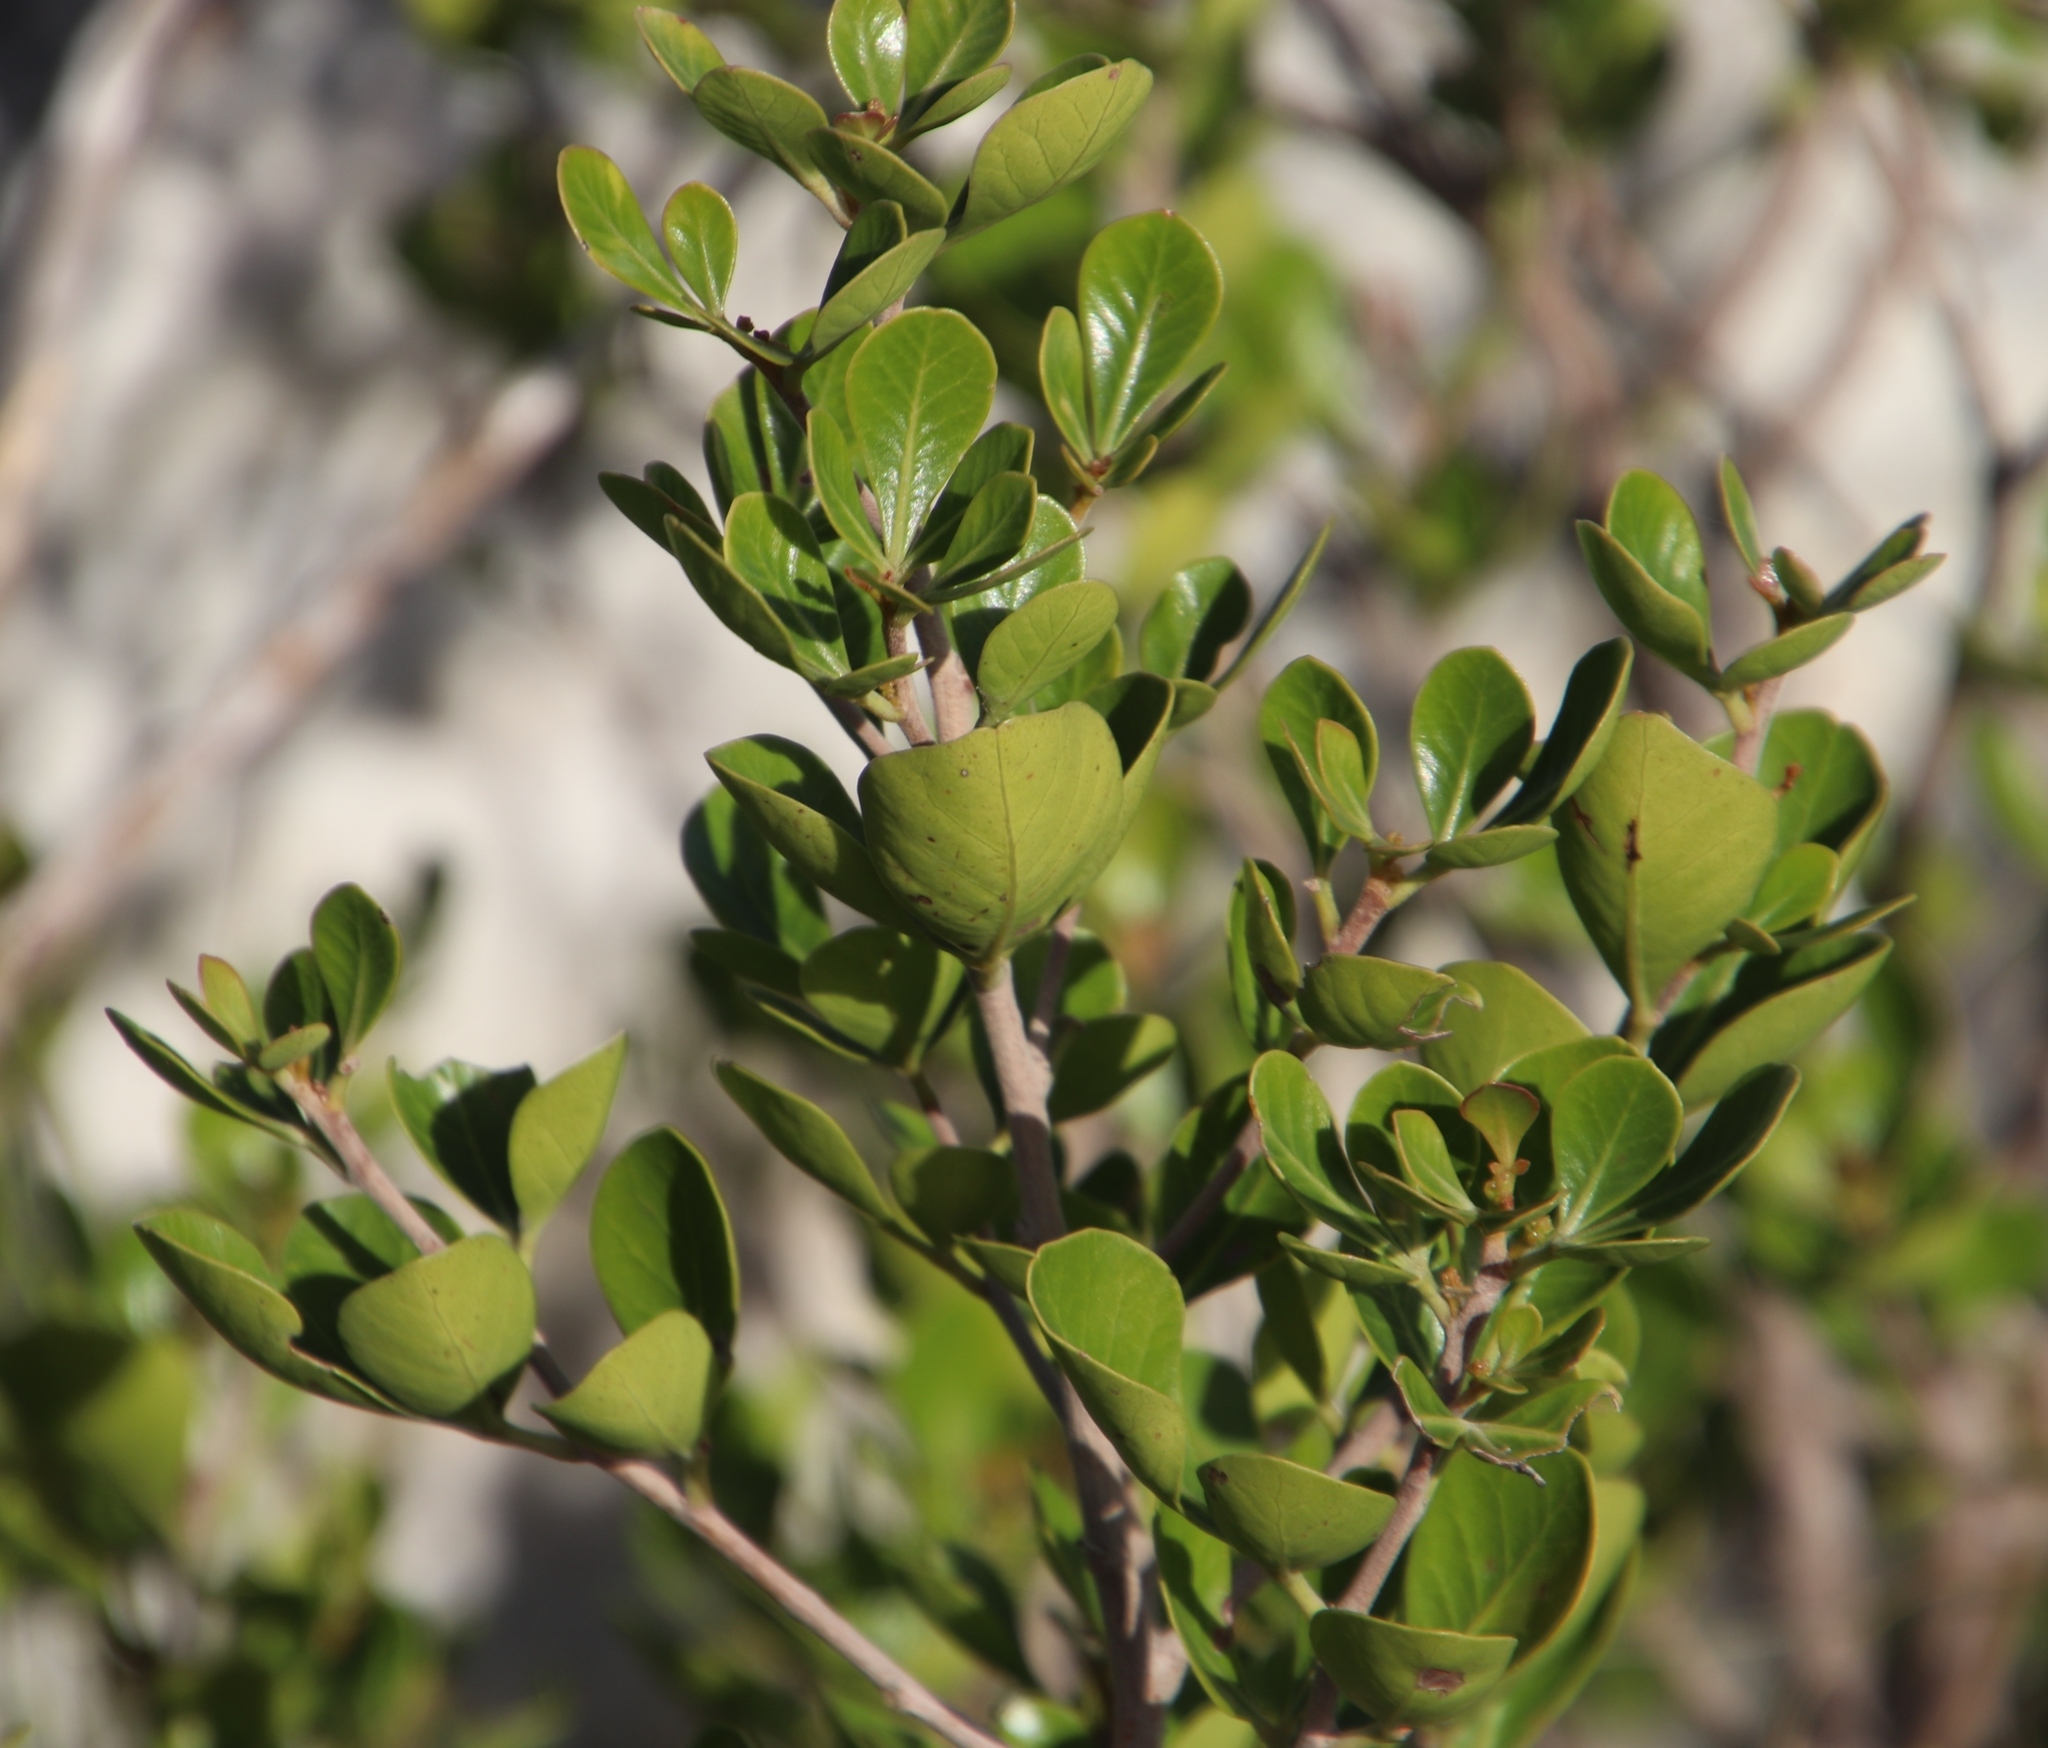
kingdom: Plantae
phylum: Tracheophyta
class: Magnoliopsida
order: Sapindales
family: Anacardiaceae
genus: Searsia
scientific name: Searsia lucida
